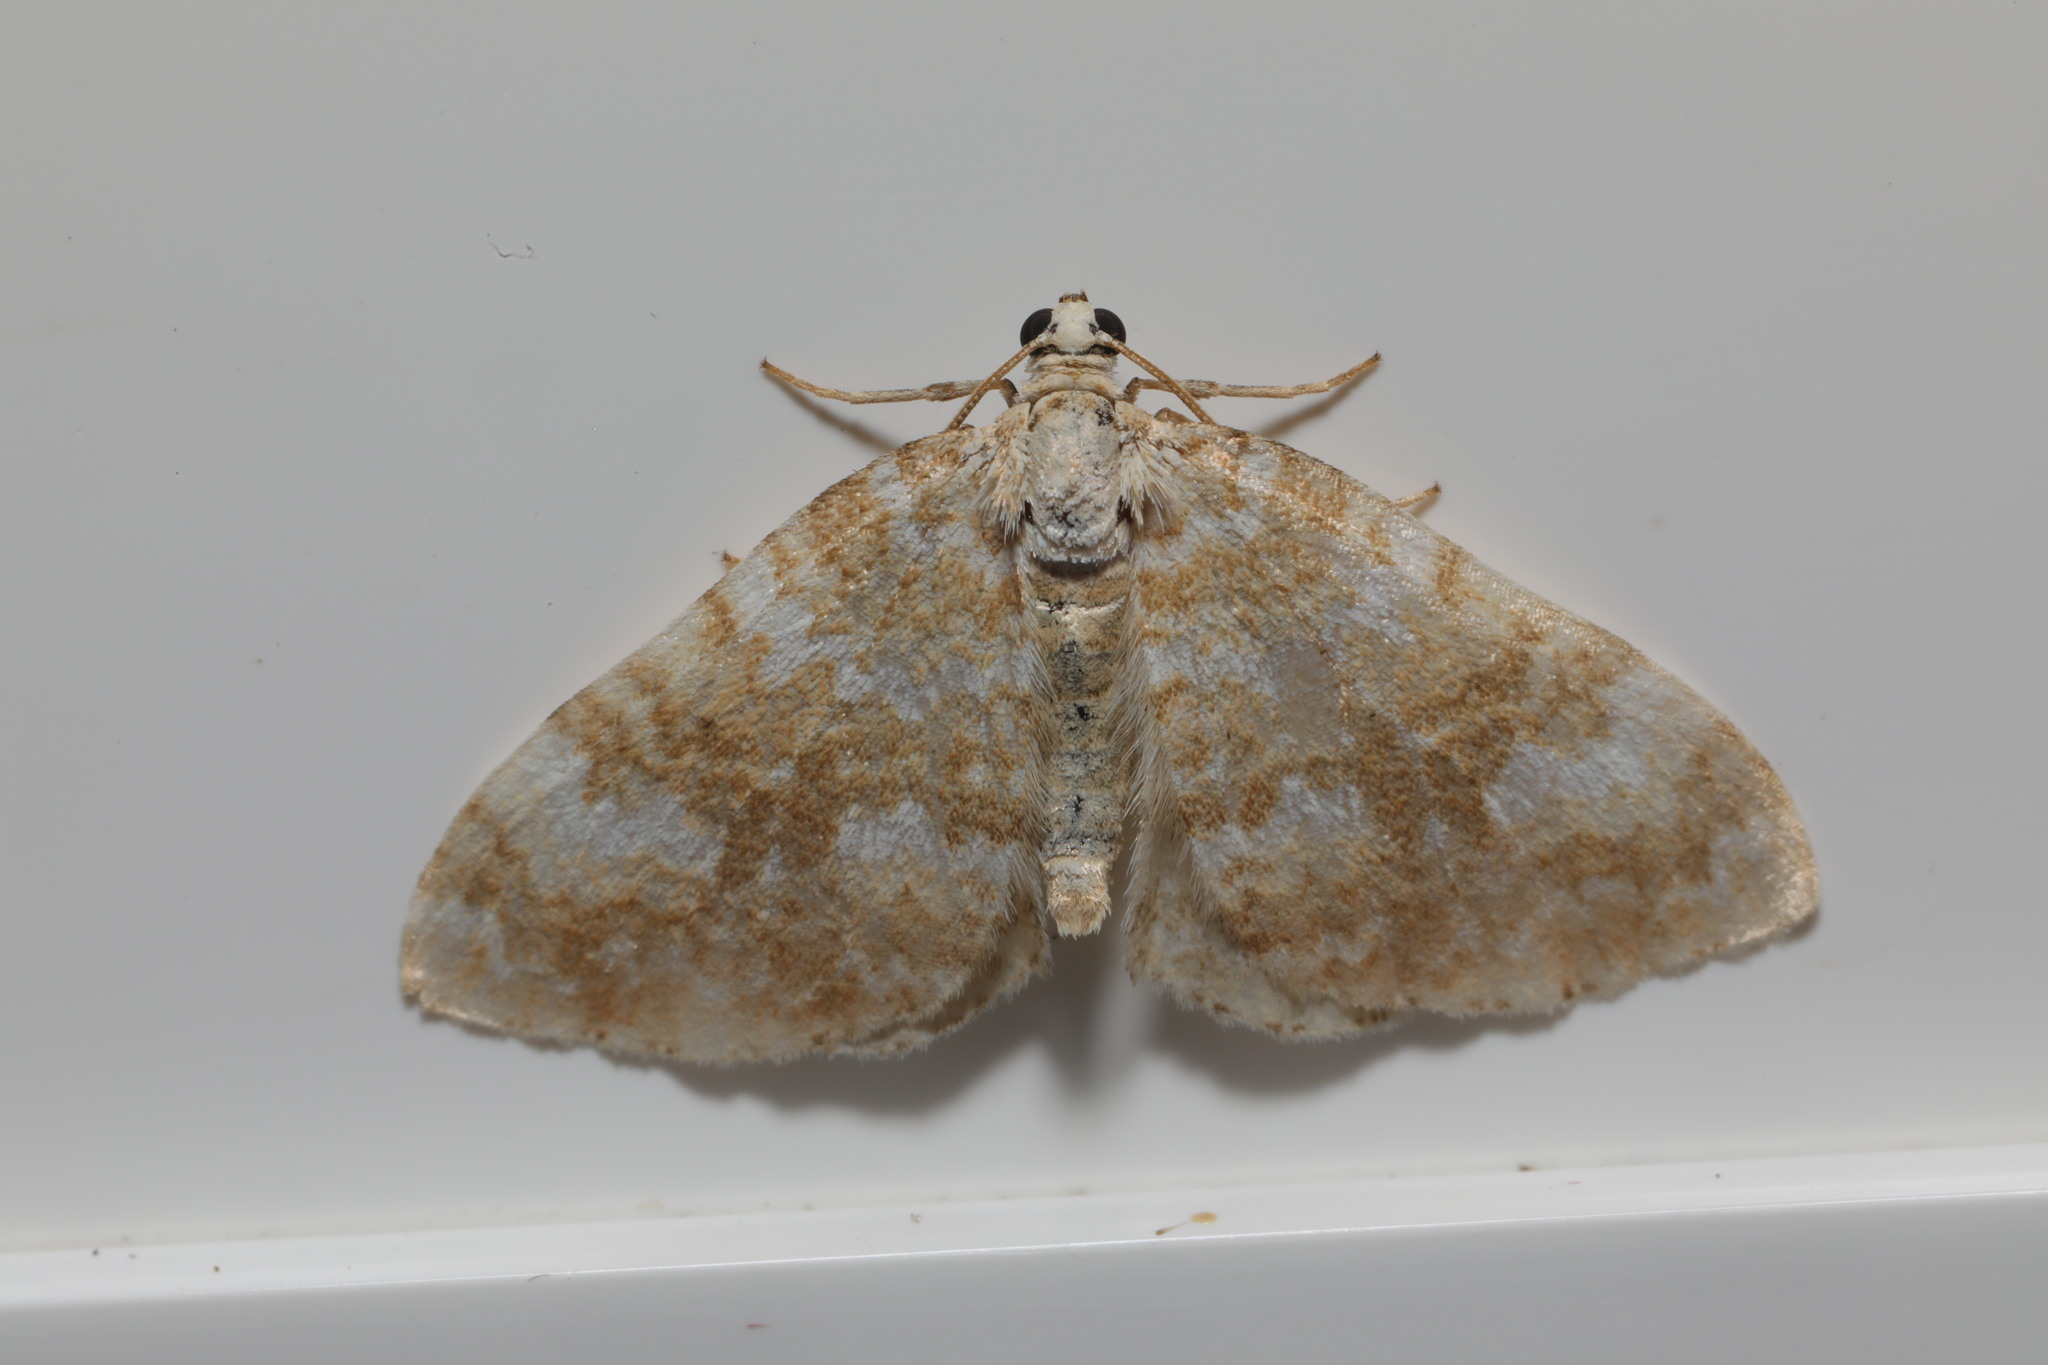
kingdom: Animalia
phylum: Arthropoda
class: Insecta
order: Lepidoptera
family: Geometridae
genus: Perizoma
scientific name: Perizoma flavofasciata
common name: Sandy carpet
